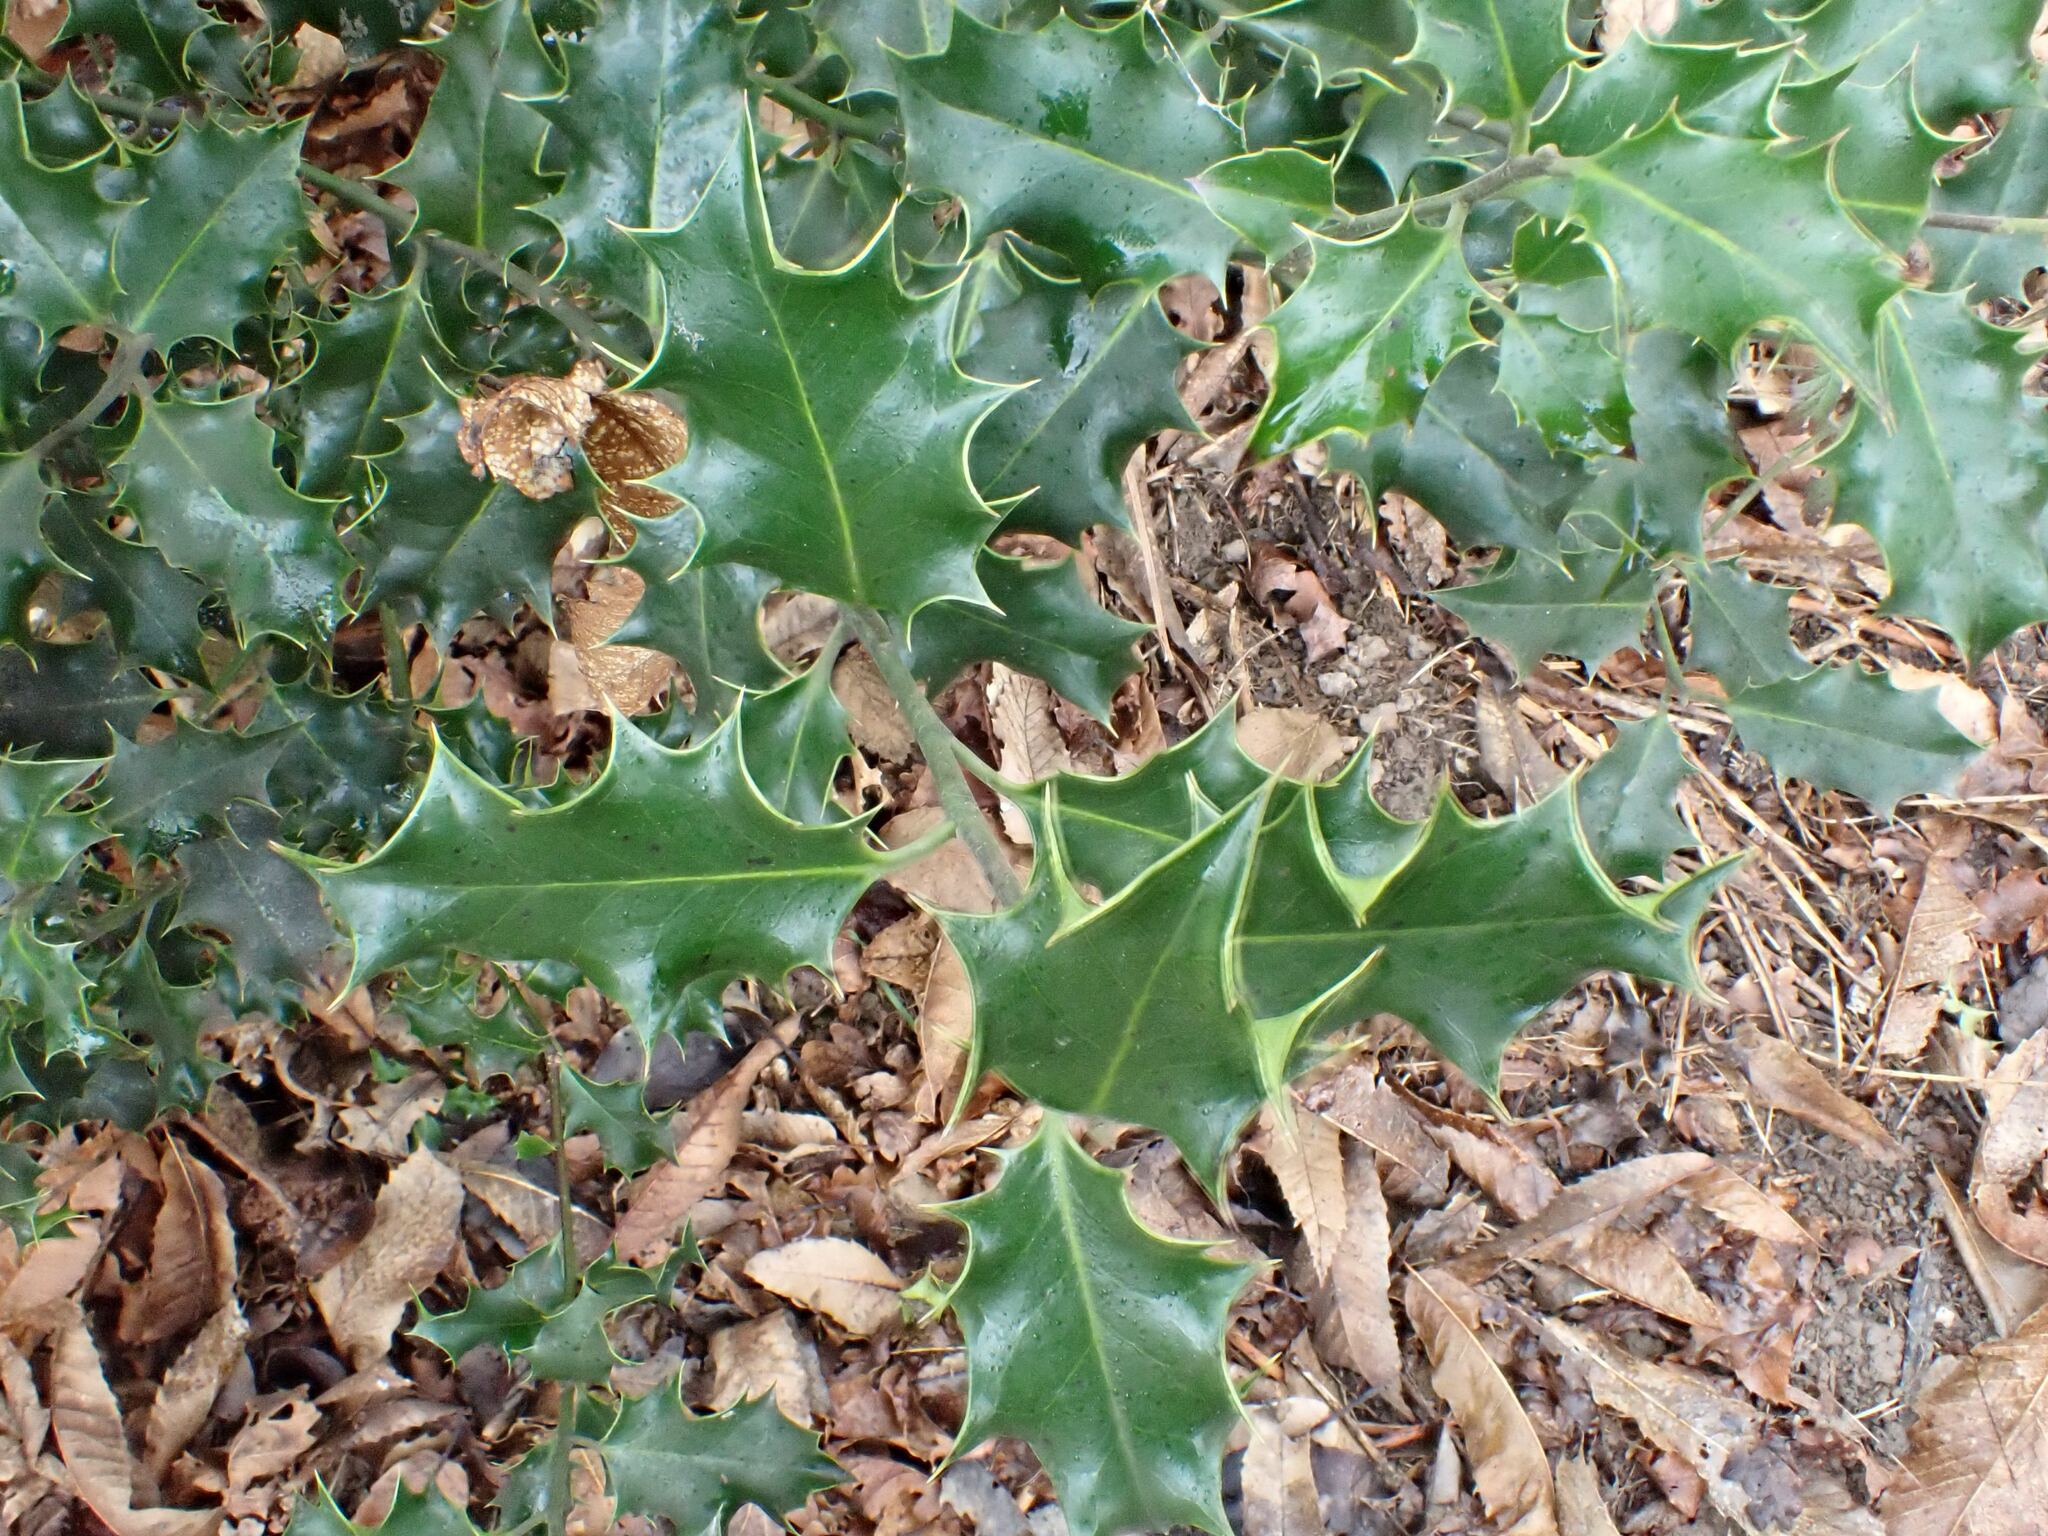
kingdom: Plantae
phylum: Tracheophyta
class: Magnoliopsida
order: Aquifoliales
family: Aquifoliaceae
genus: Ilex
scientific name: Ilex aquifolium
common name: English holly
